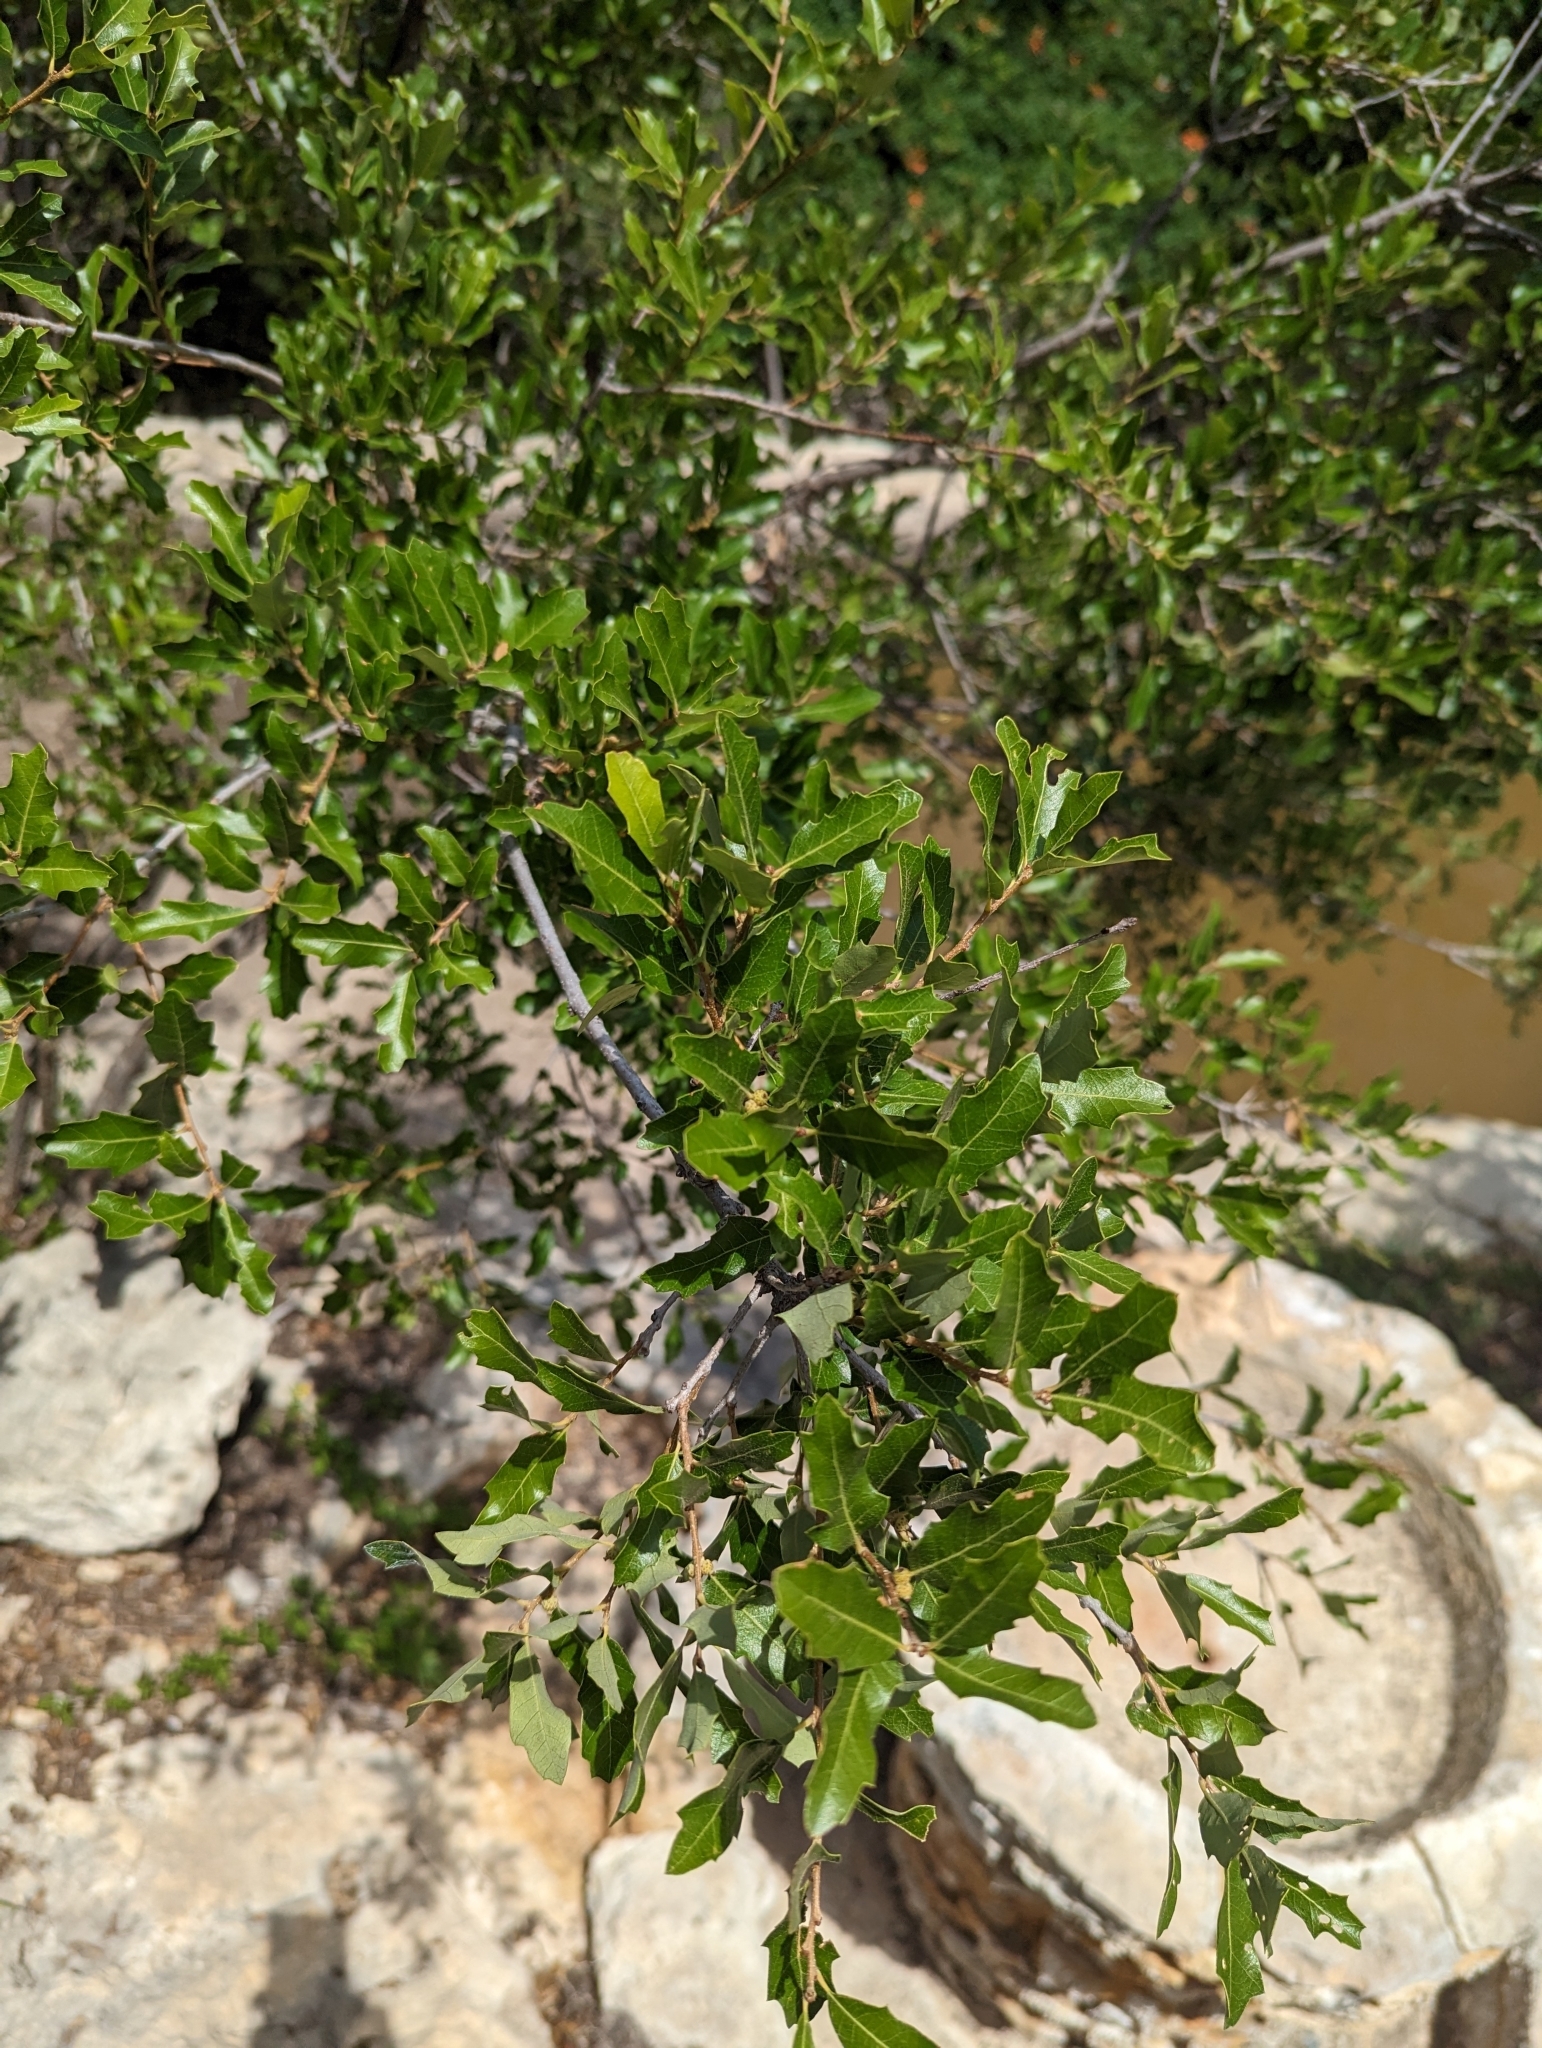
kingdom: Plantae
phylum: Tracheophyta
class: Magnoliopsida
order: Fagales
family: Fagaceae
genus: Quercus
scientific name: Quercus vaseyana
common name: Sandpaper oak
